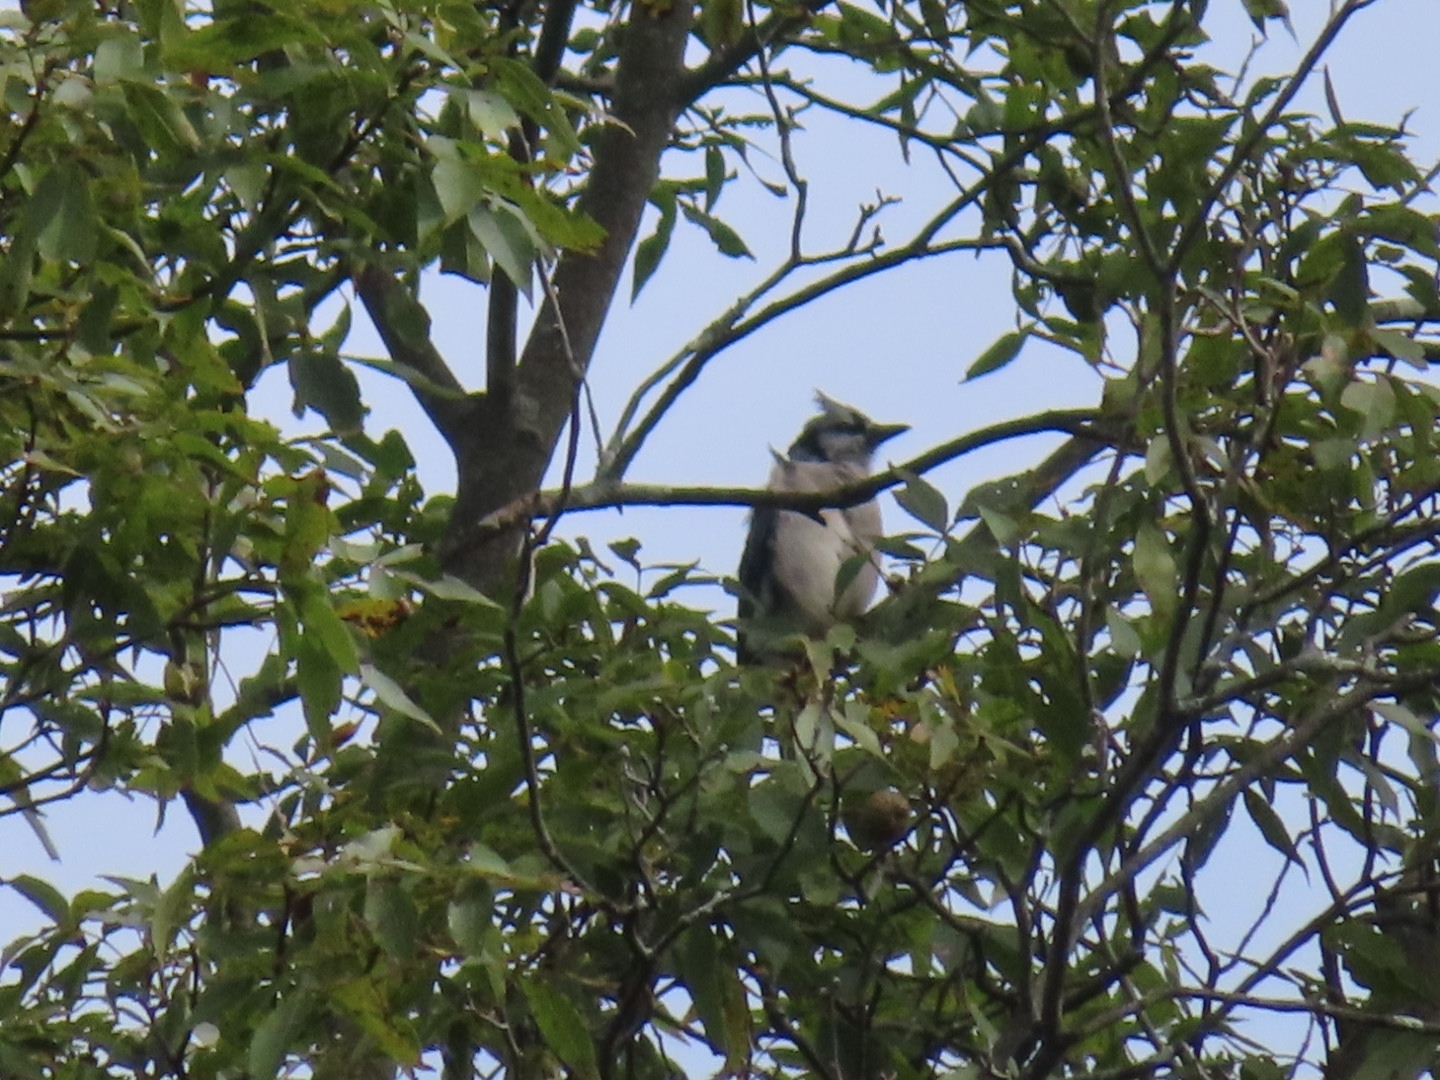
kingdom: Animalia
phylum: Chordata
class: Aves
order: Passeriformes
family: Corvidae
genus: Cyanocitta
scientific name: Cyanocitta cristata
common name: Blue jay
